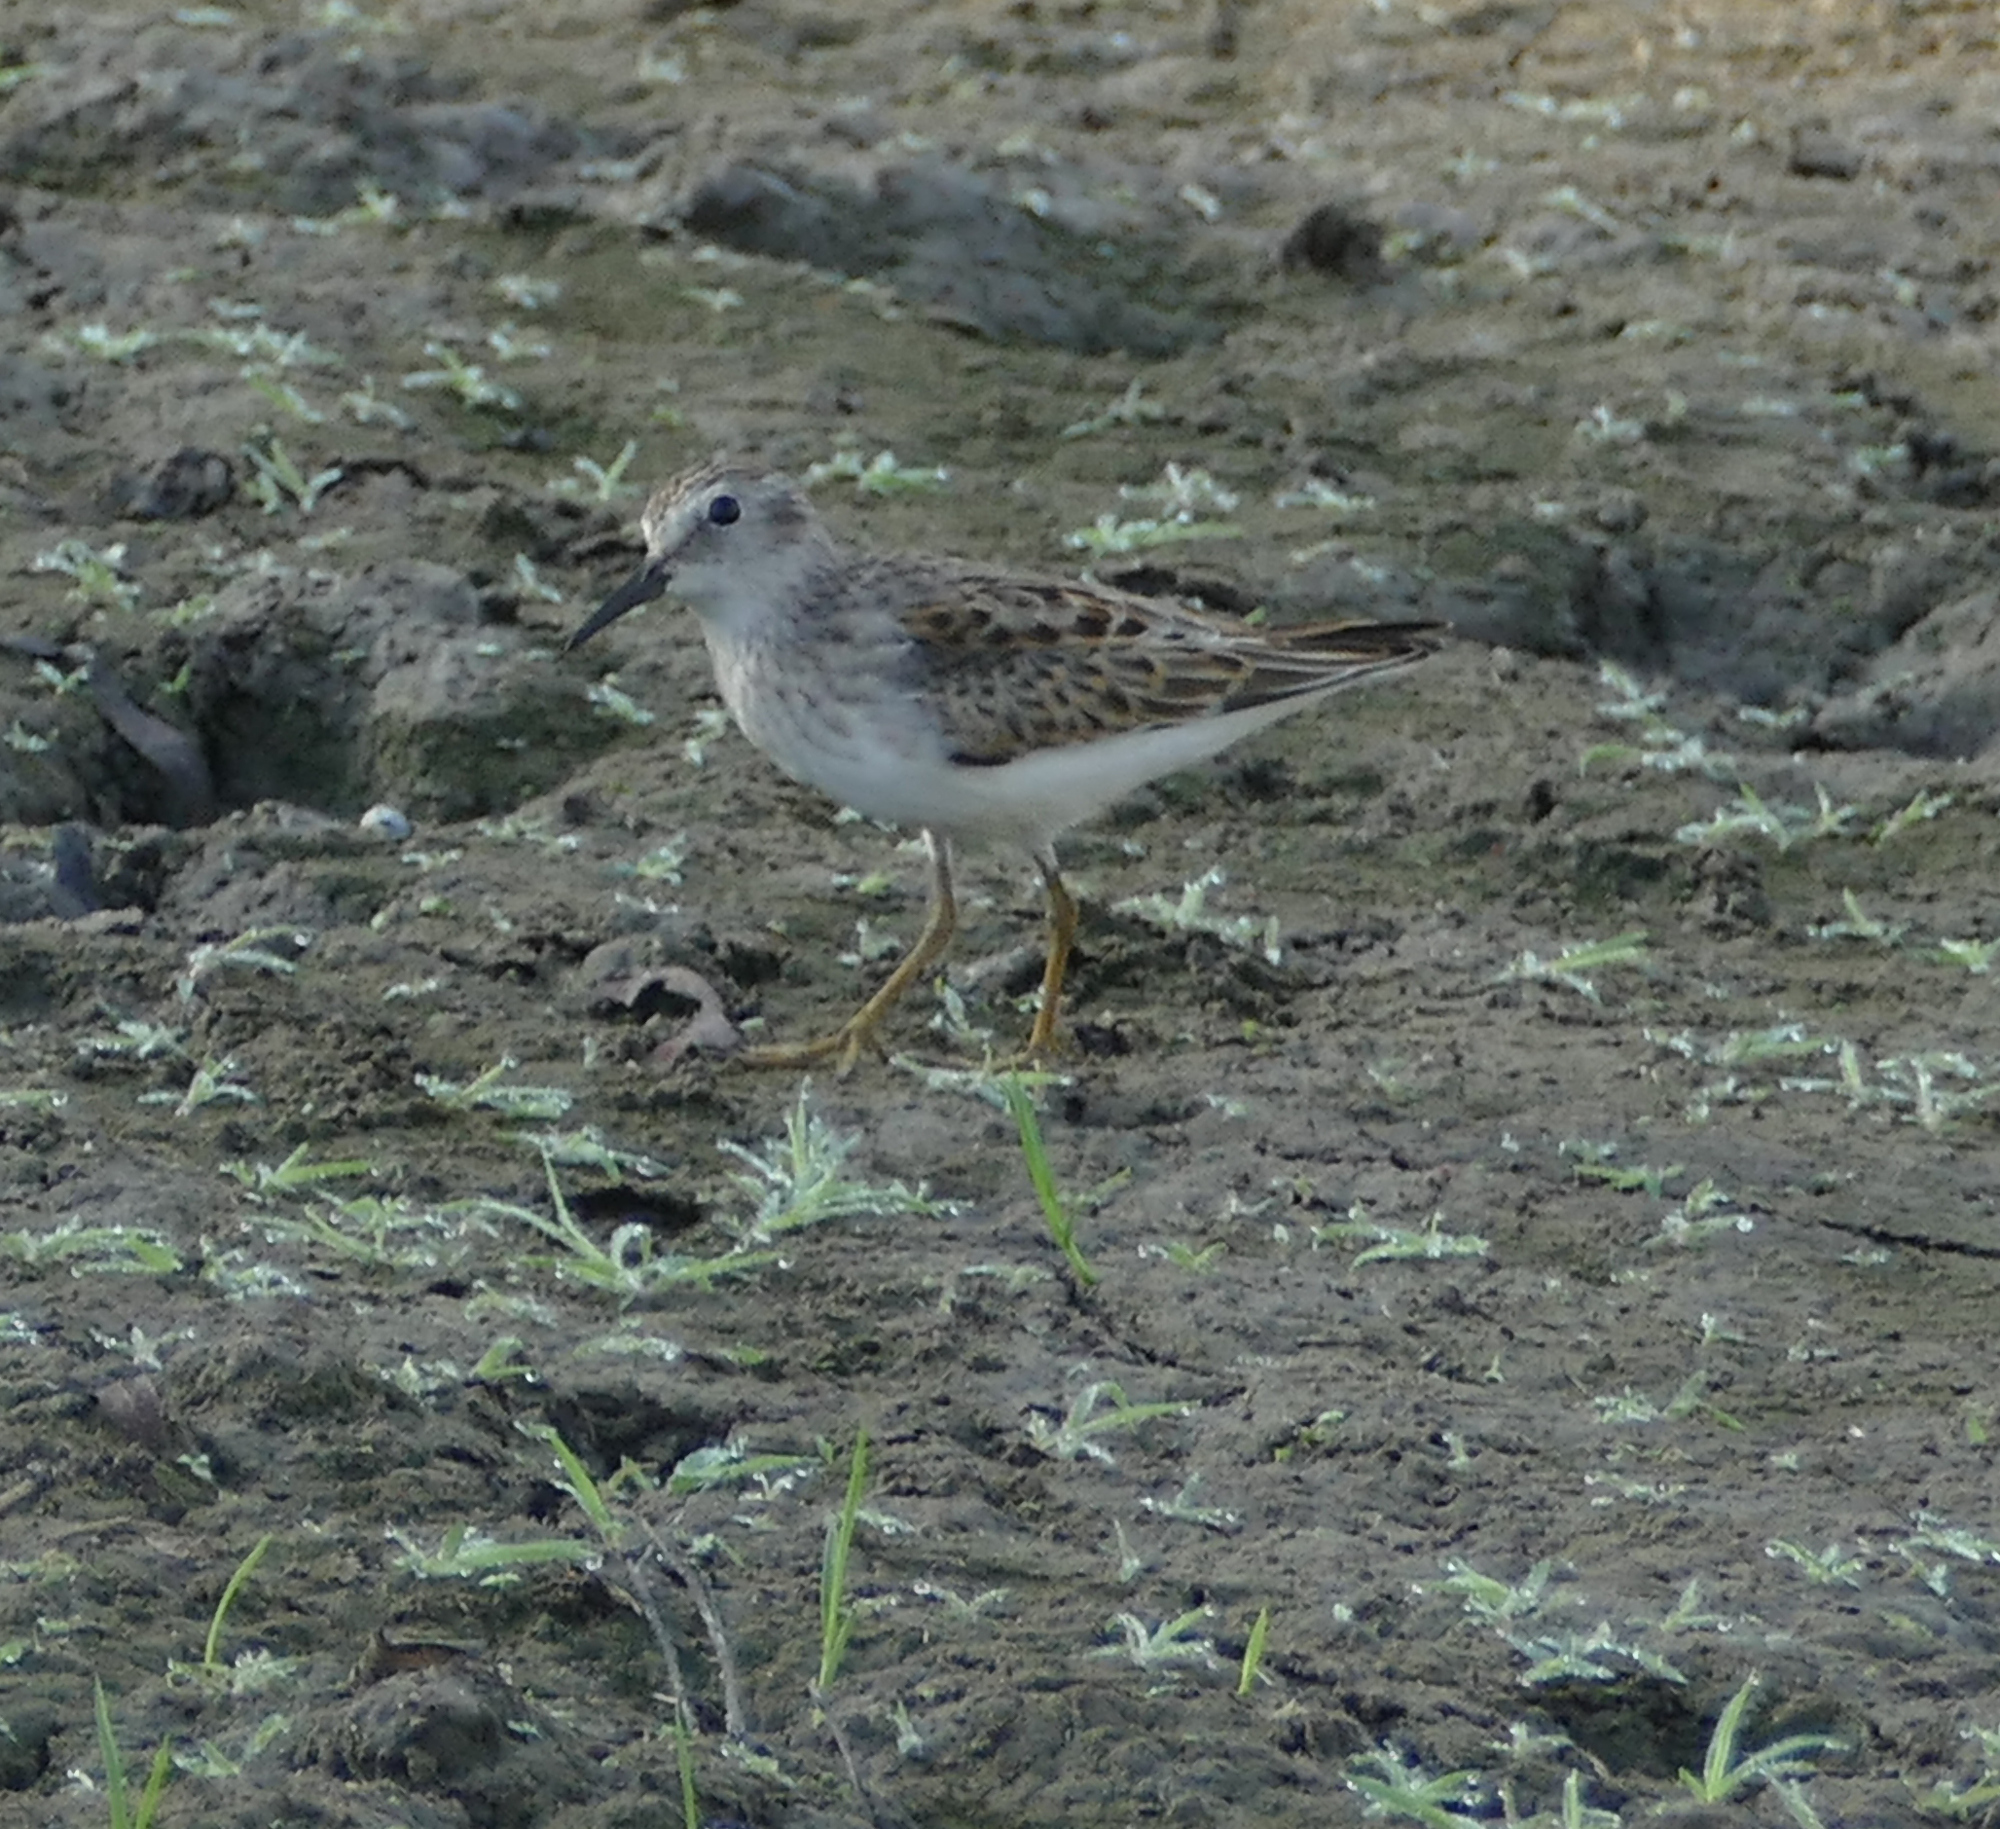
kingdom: Animalia
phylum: Chordata
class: Aves
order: Charadriiformes
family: Scolopacidae
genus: Calidris
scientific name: Calidris minutilla
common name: Least sandpiper
